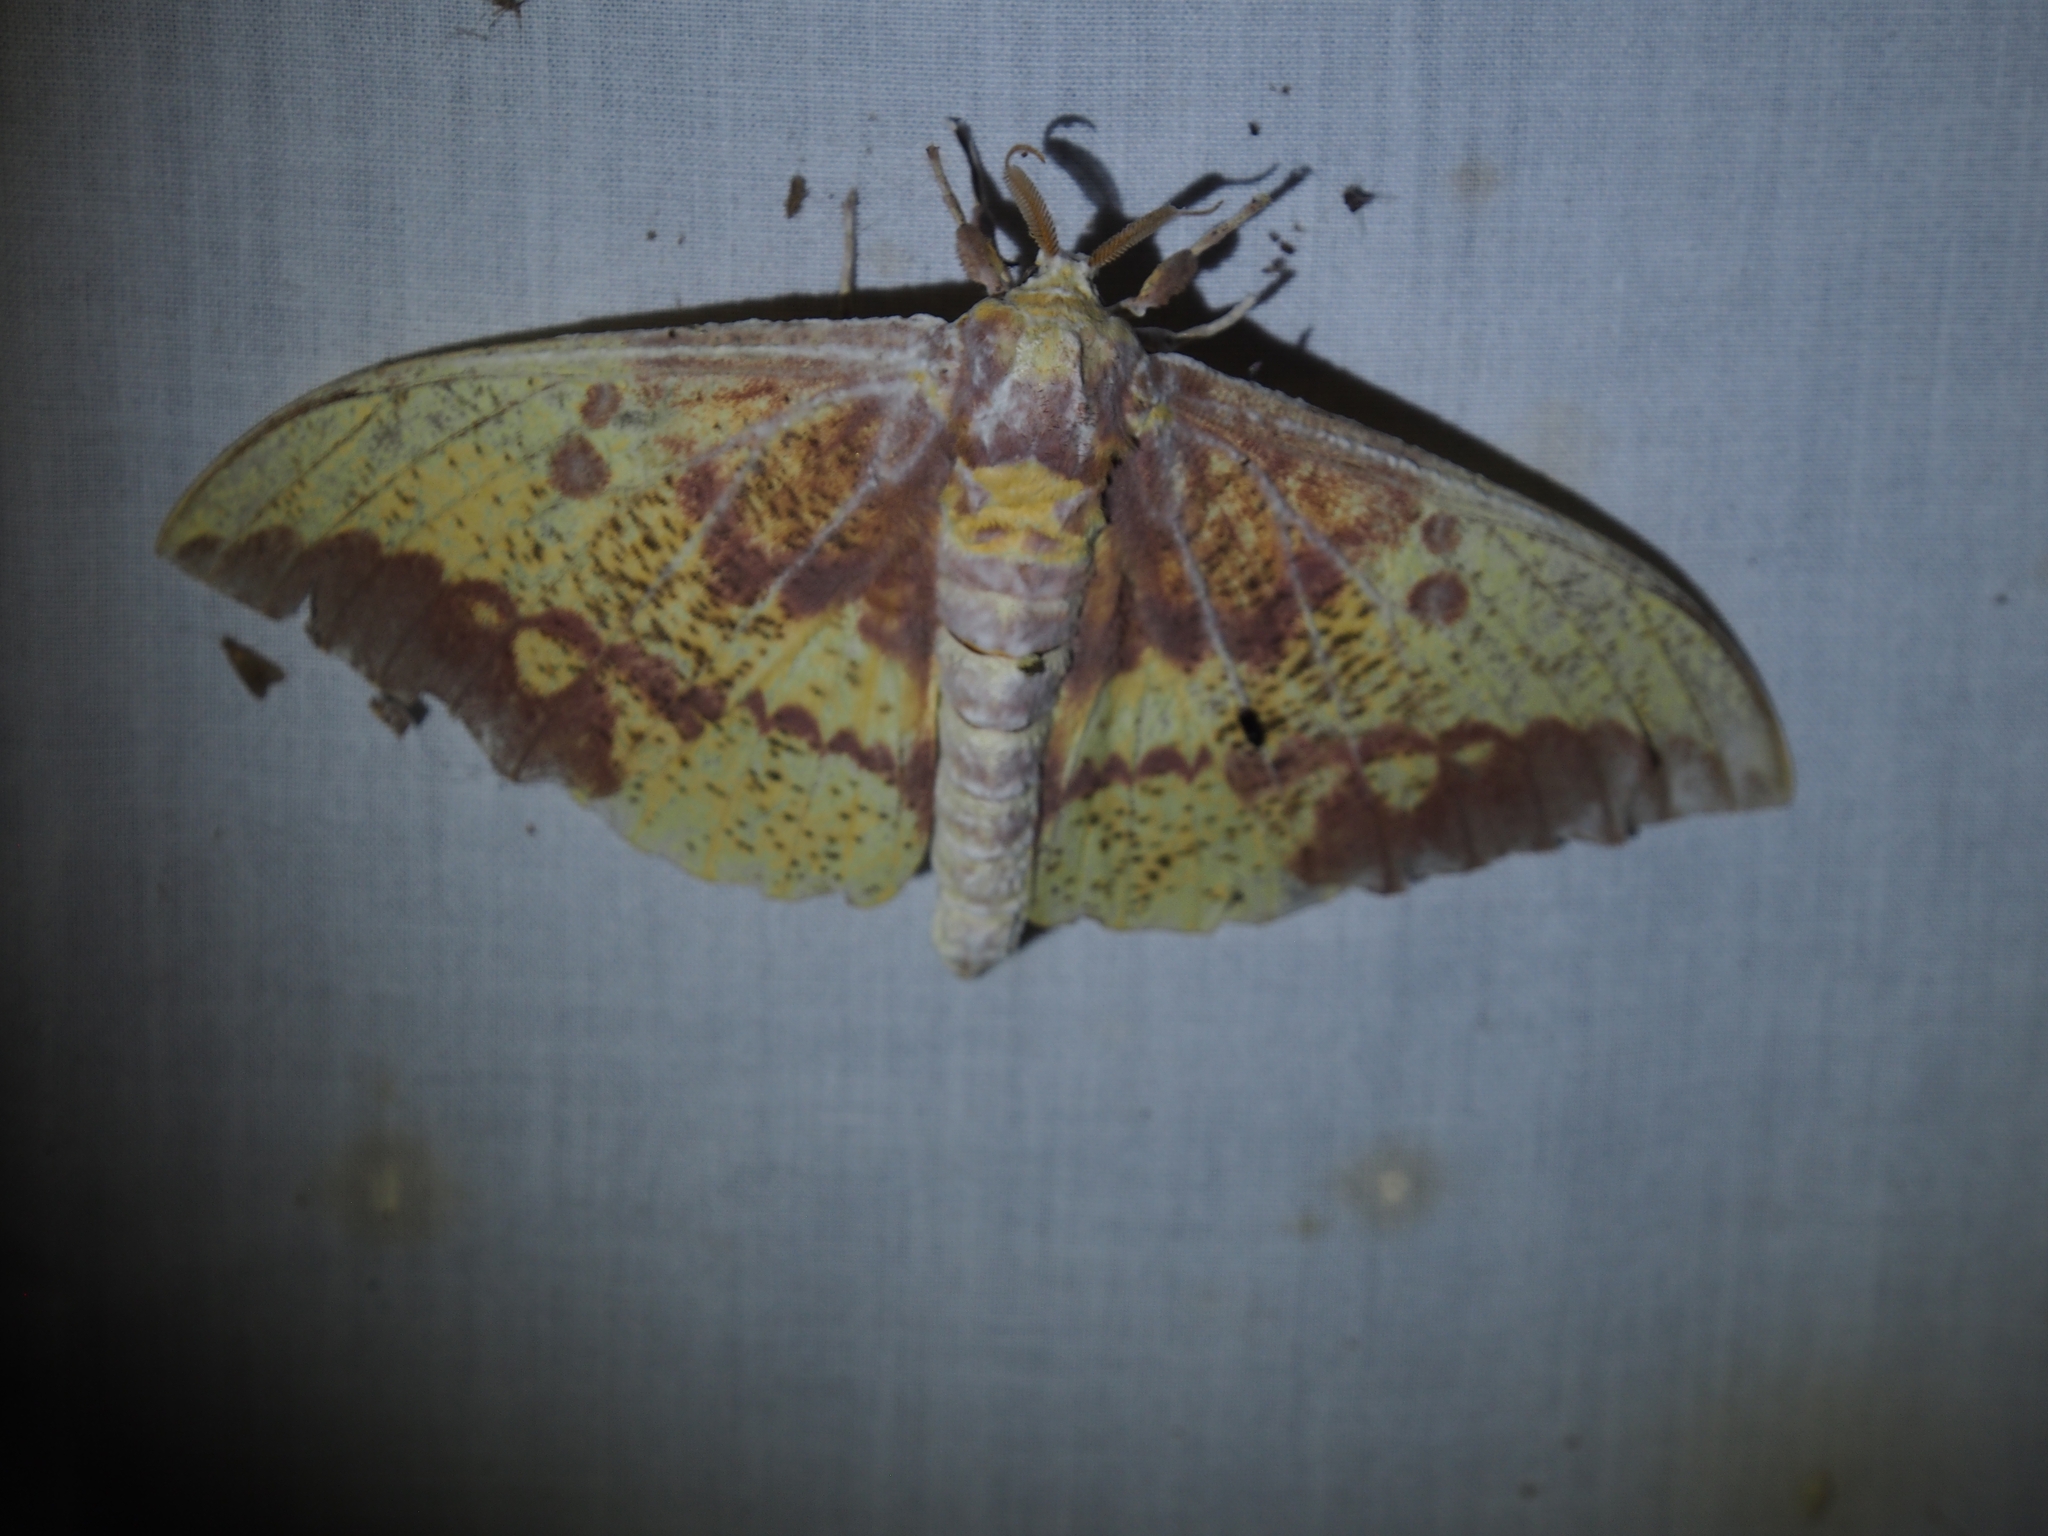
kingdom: Animalia
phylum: Arthropoda
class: Insecta
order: Lepidoptera
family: Saturniidae
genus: Eacles
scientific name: Eacles imperialis
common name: Imperial moth
